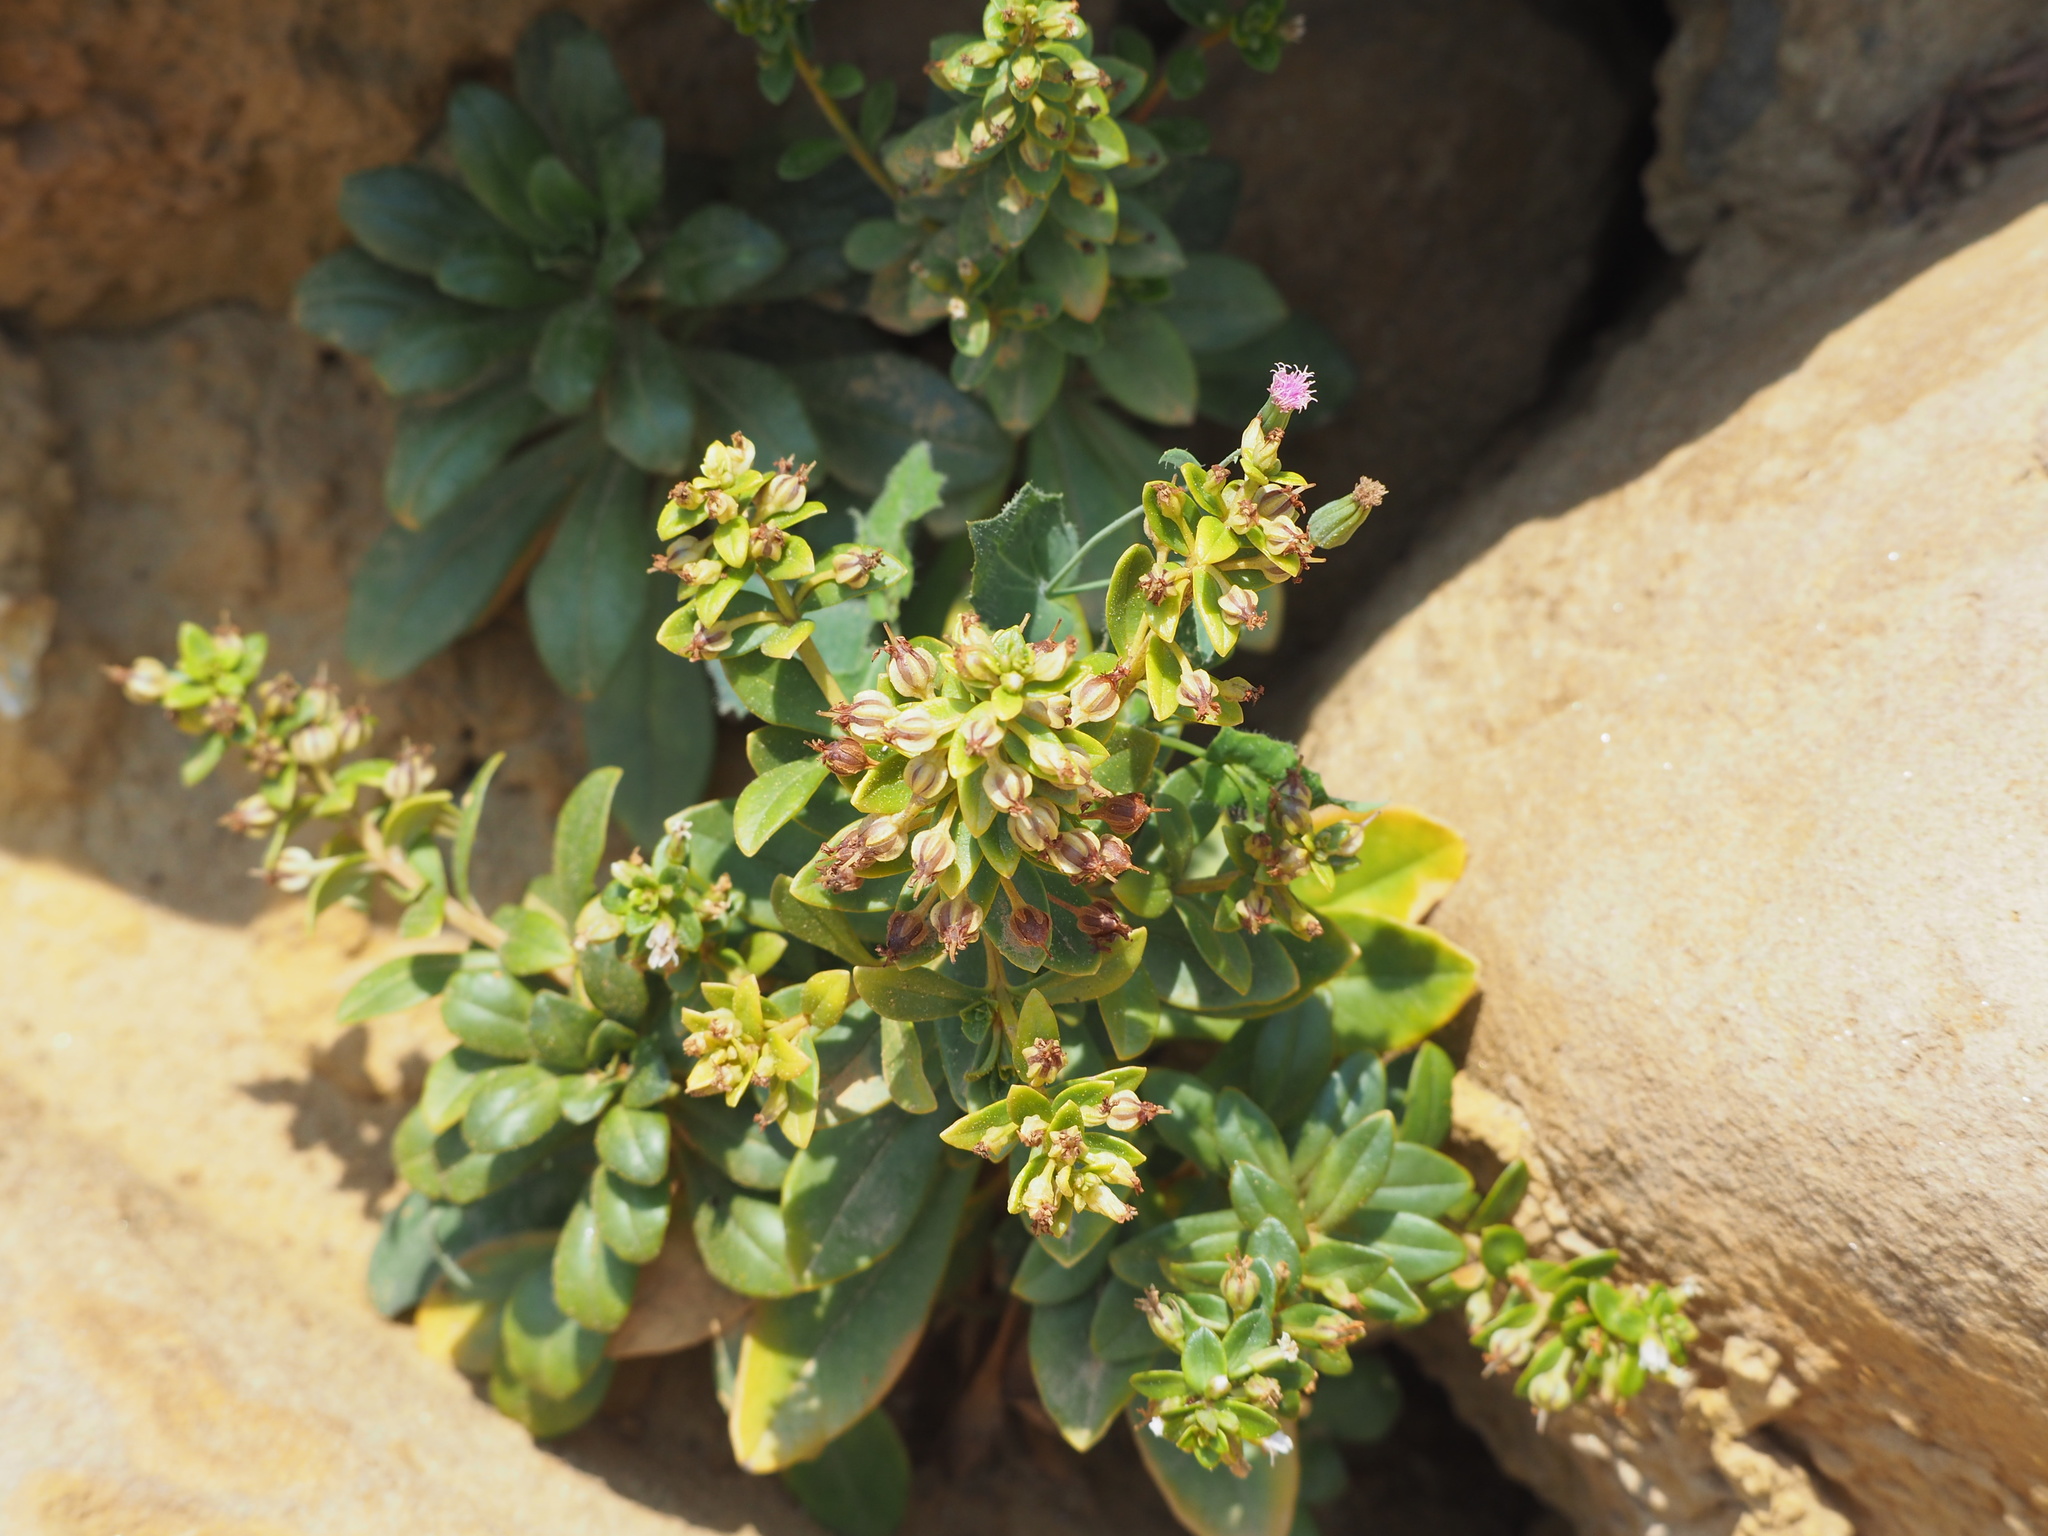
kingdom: Plantae
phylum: Tracheophyta
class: Magnoliopsida
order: Ericales
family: Primulaceae
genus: Lysimachia
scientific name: Lysimachia mauritiana
